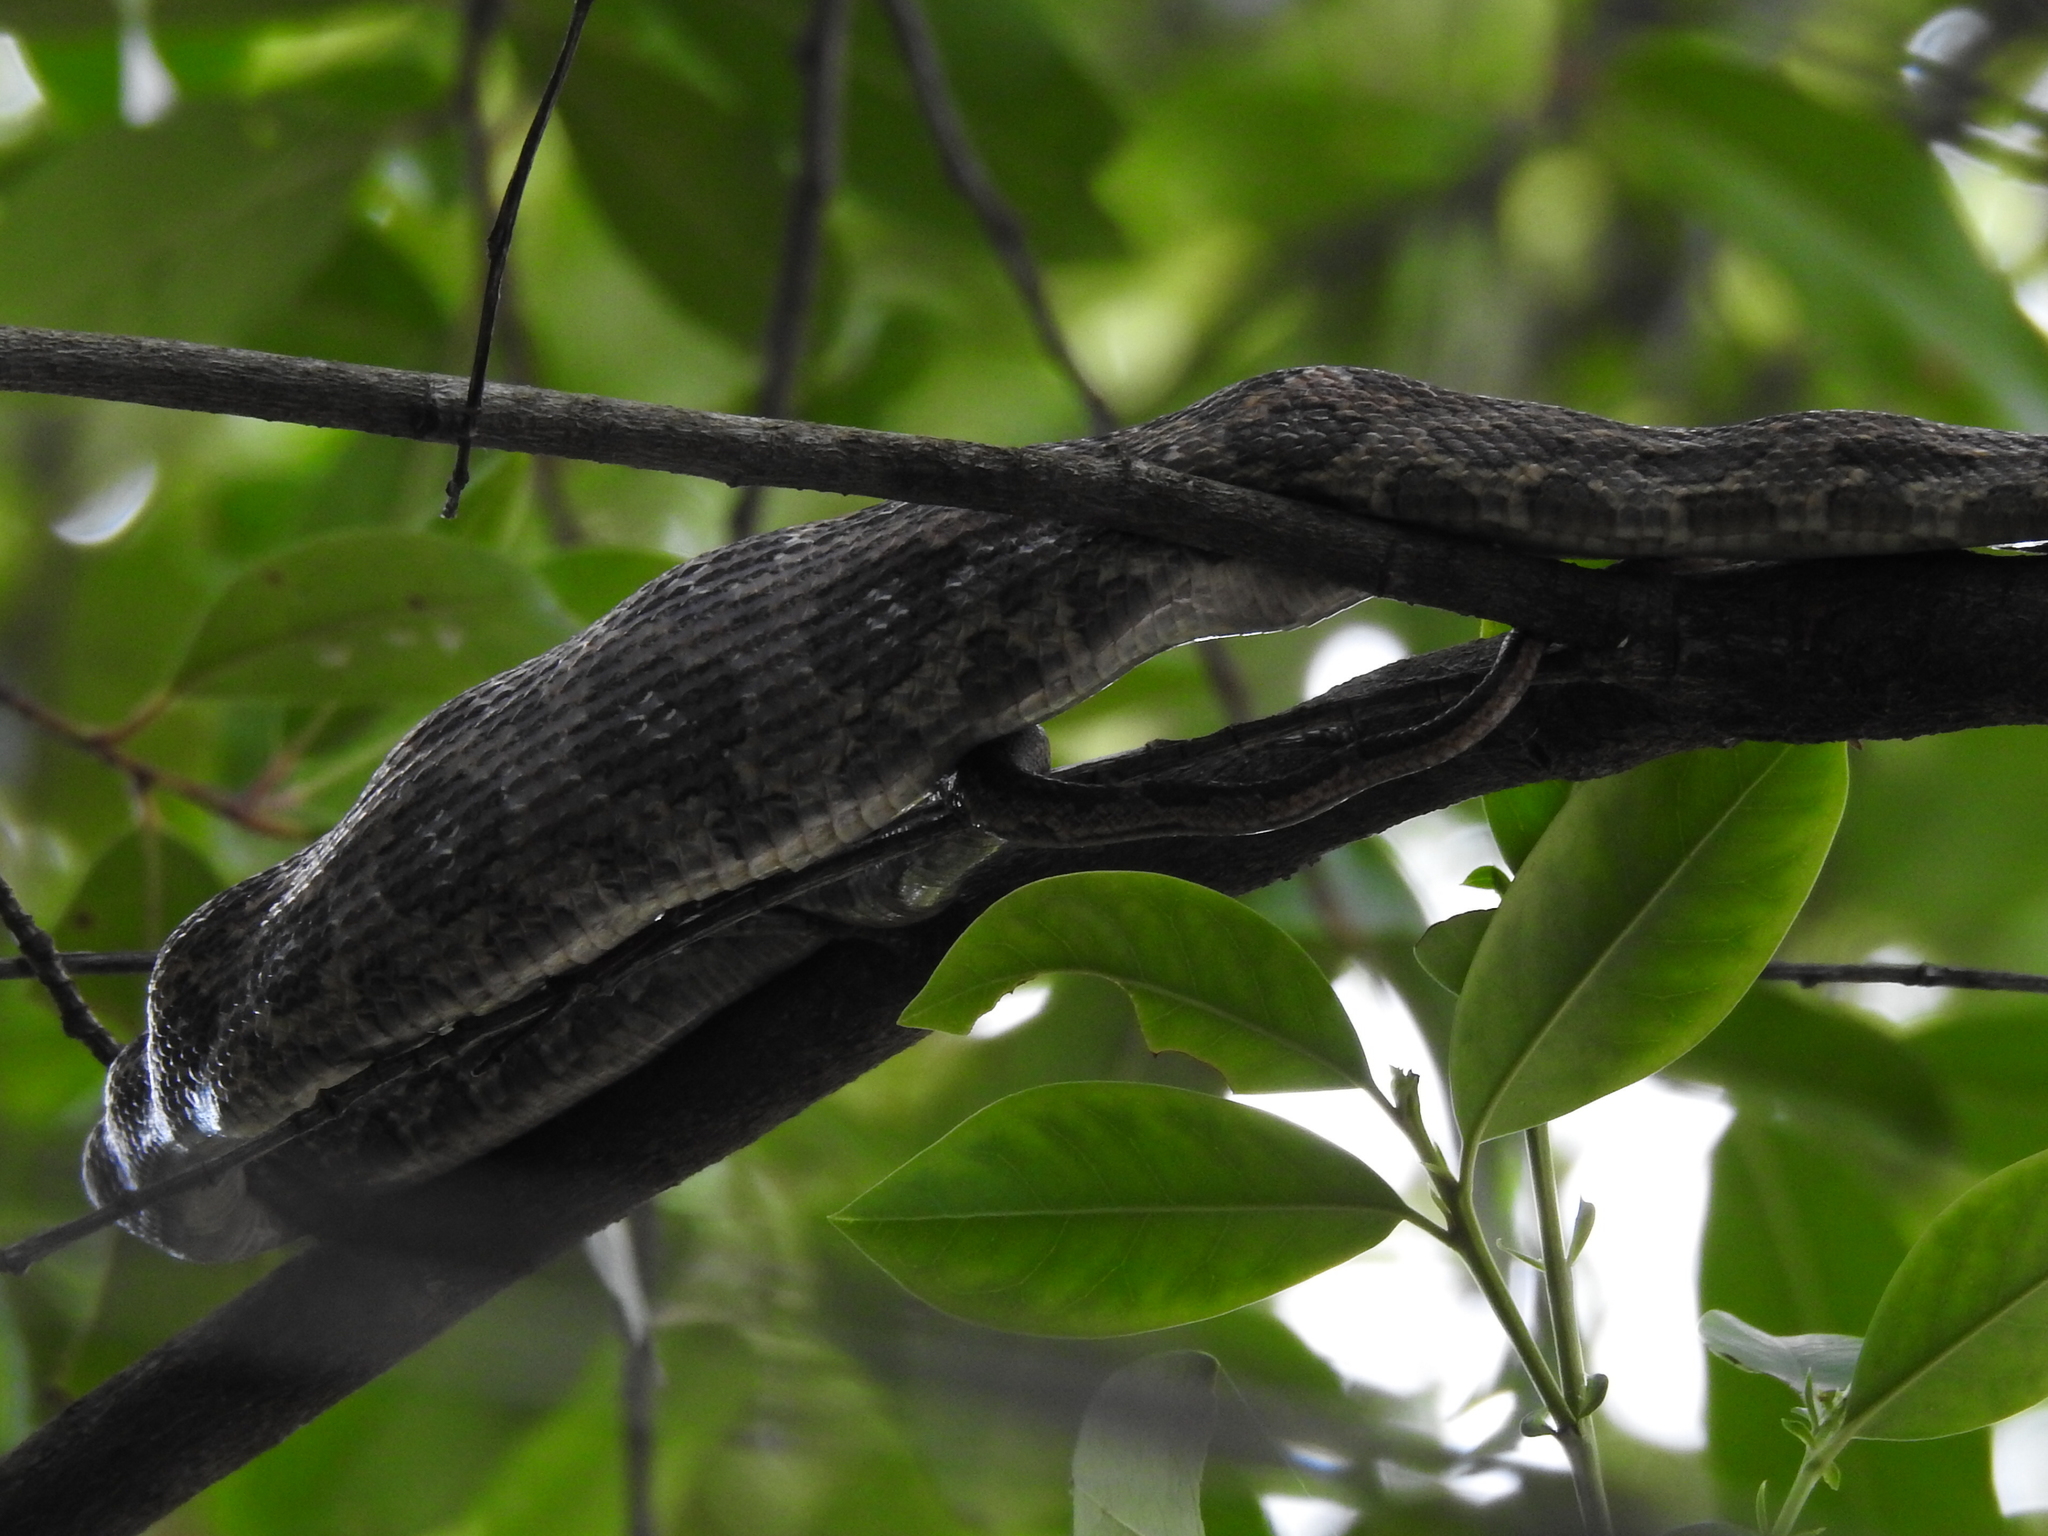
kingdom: Animalia
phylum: Chordata
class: Squamata
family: Colubridae
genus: Pantherophis
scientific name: Pantherophis obsoletus
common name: Black rat snake
